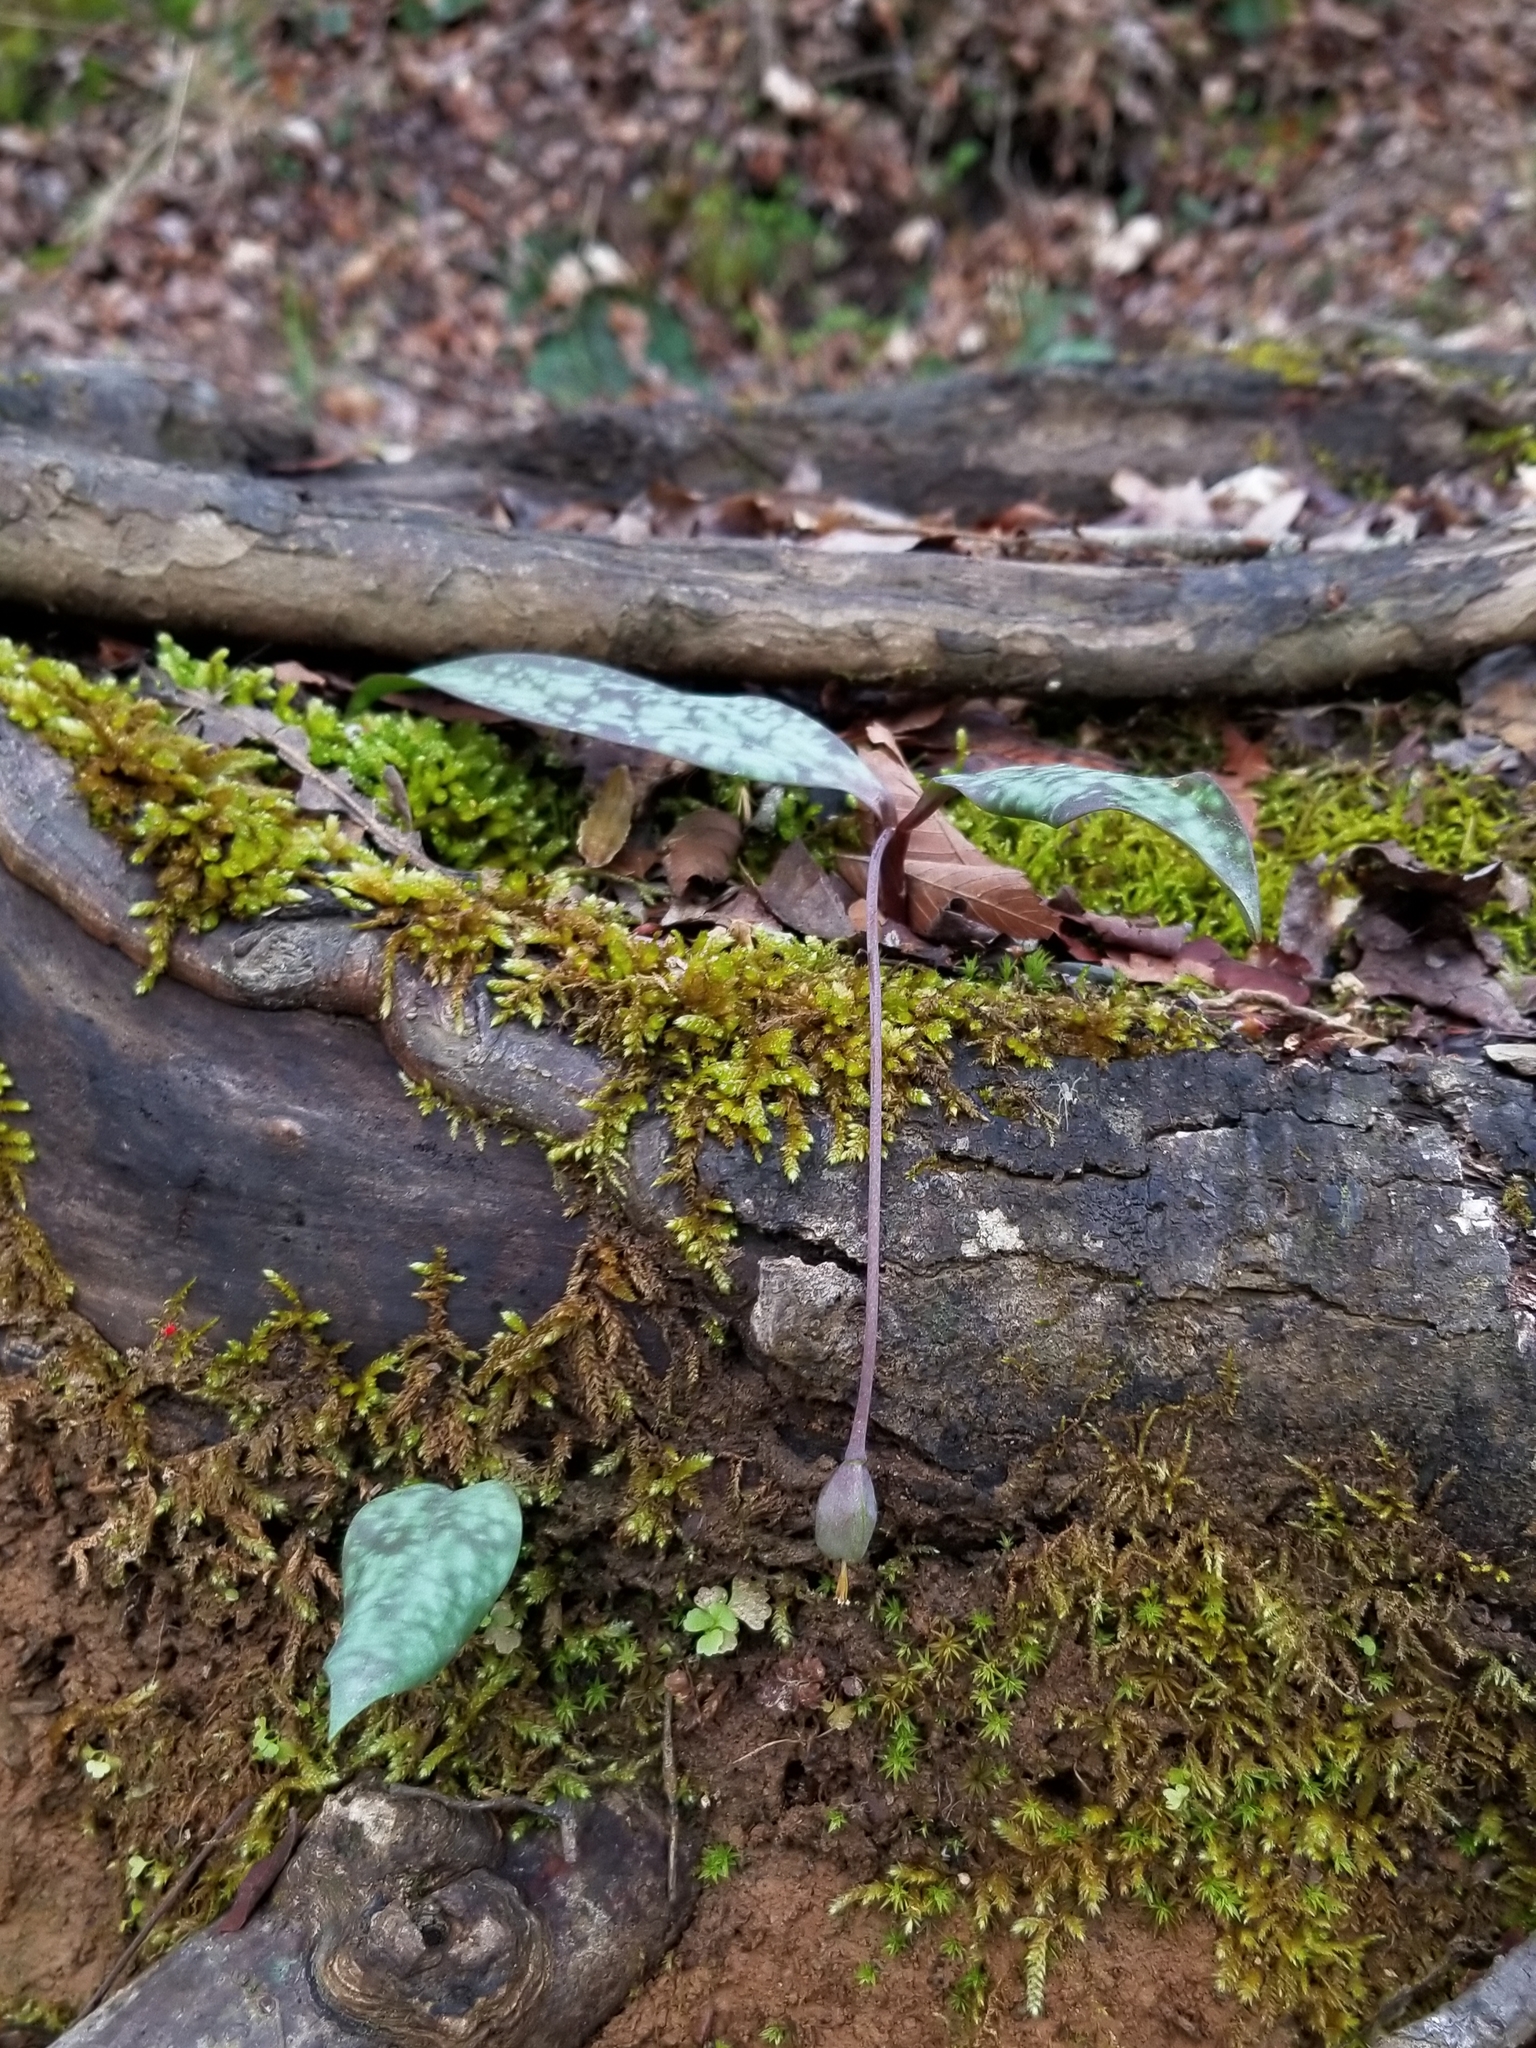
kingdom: Plantae
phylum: Tracheophyta
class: Liliopsida
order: Liliales
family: Liliaceae
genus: Erythronium
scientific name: Erythronium umbilicatum
